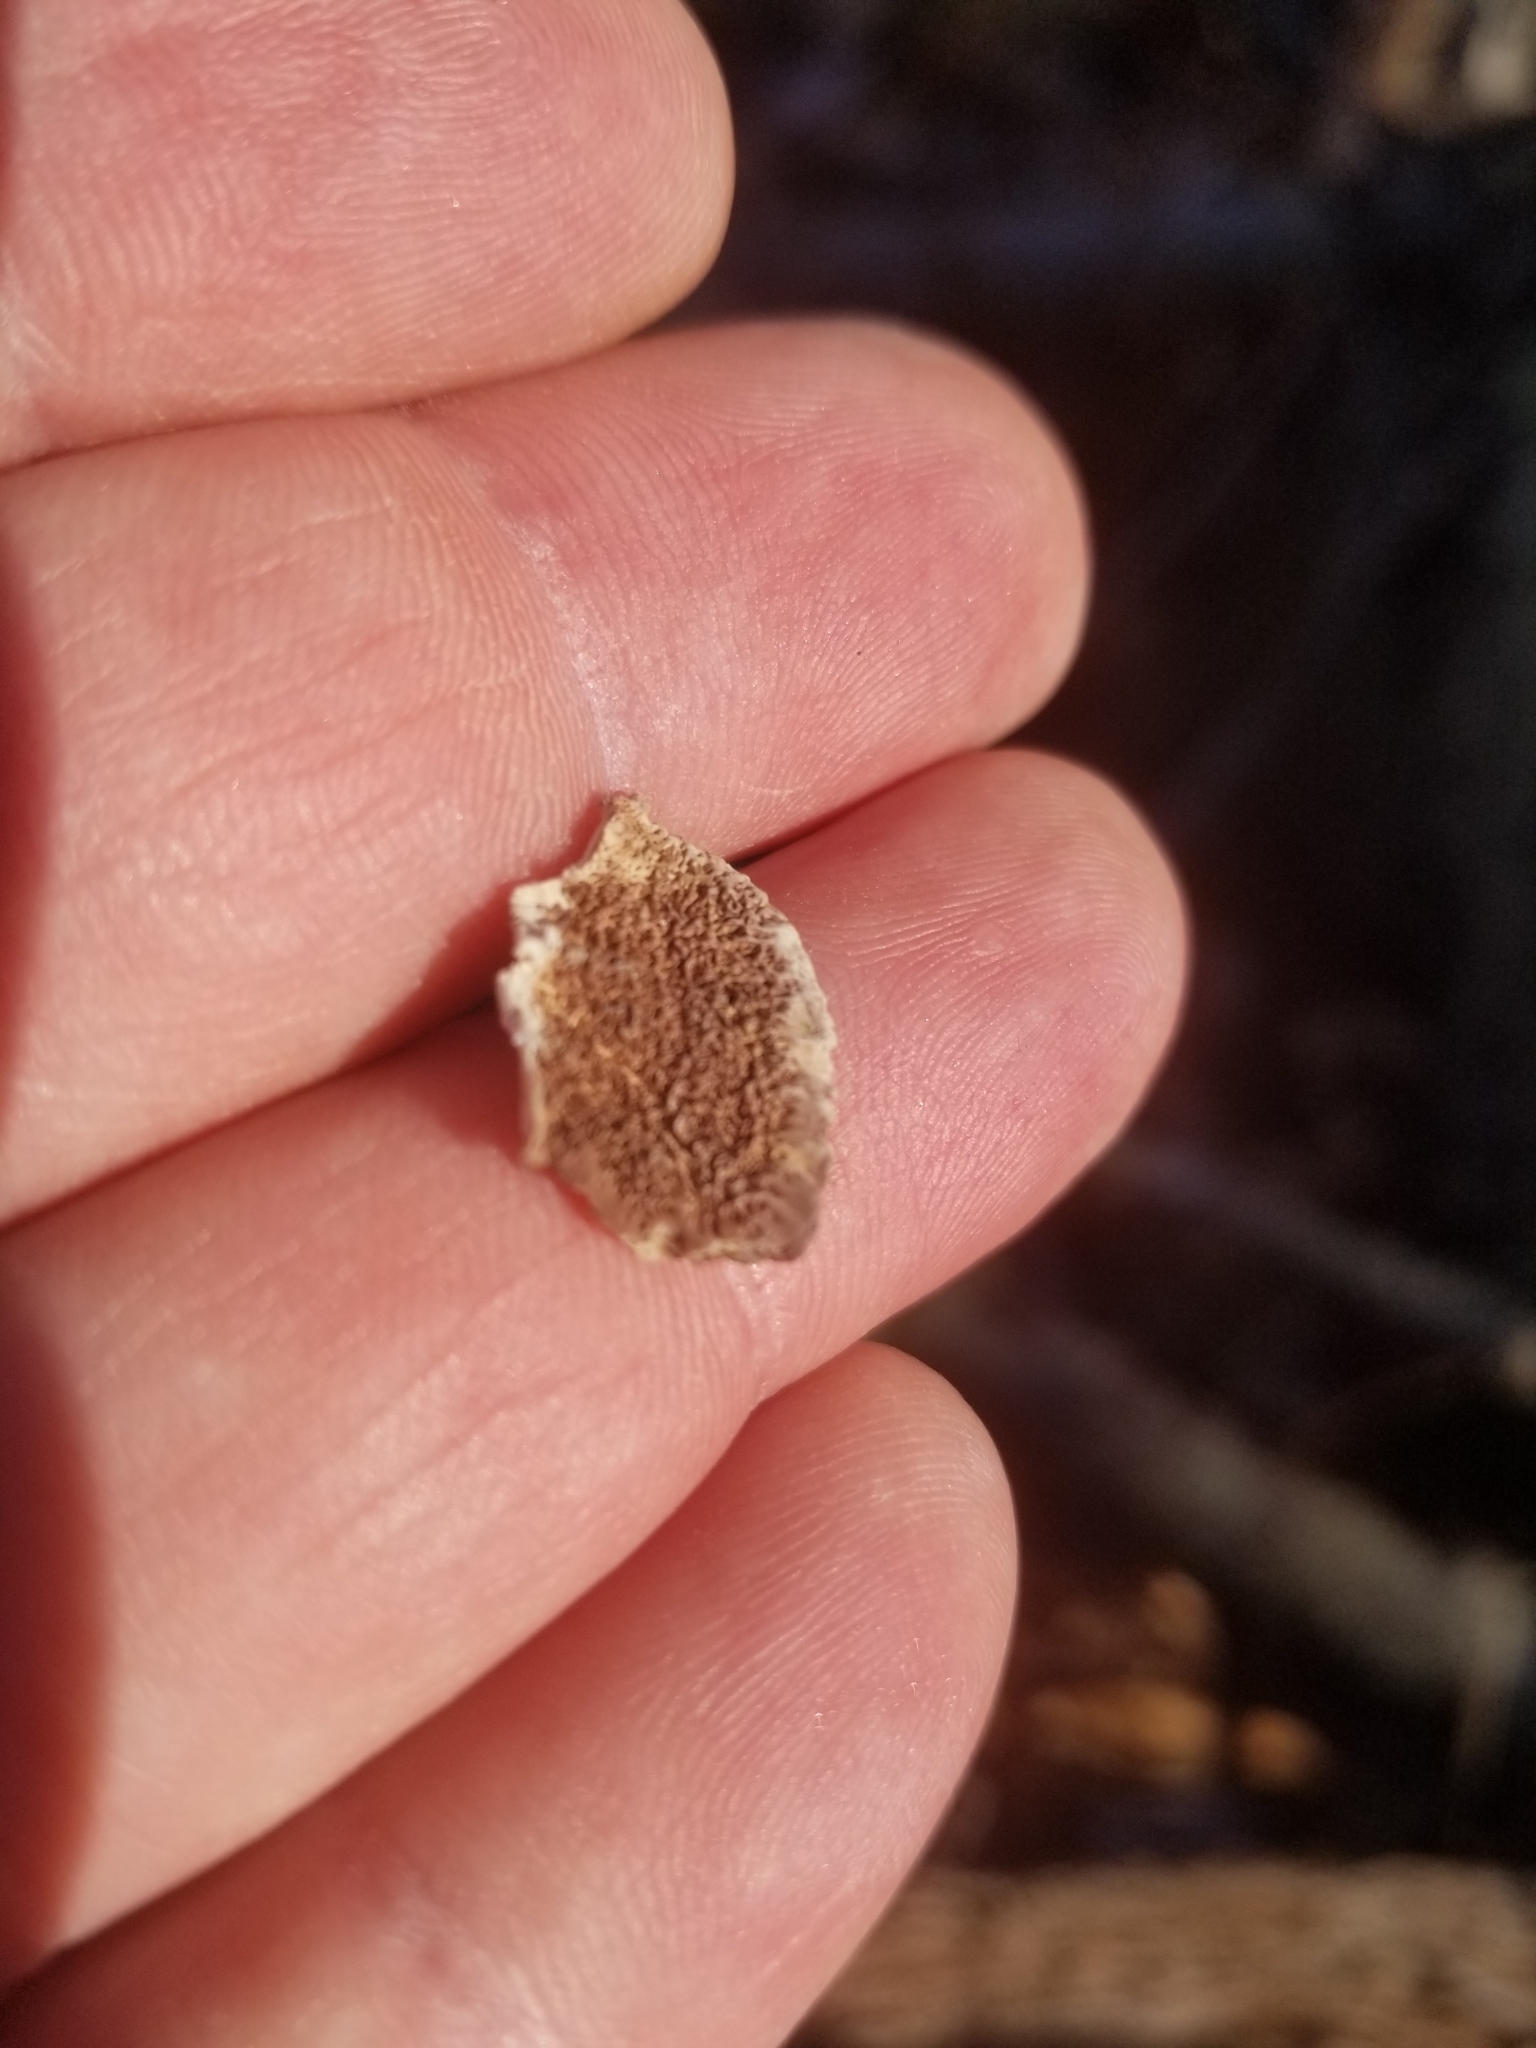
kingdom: Fungi
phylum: Basidiomycota
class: Agaricomycetes
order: Hymenochaetales
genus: Trichaptum
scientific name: Trichaptum biforme
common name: Violet-toothed polypore
